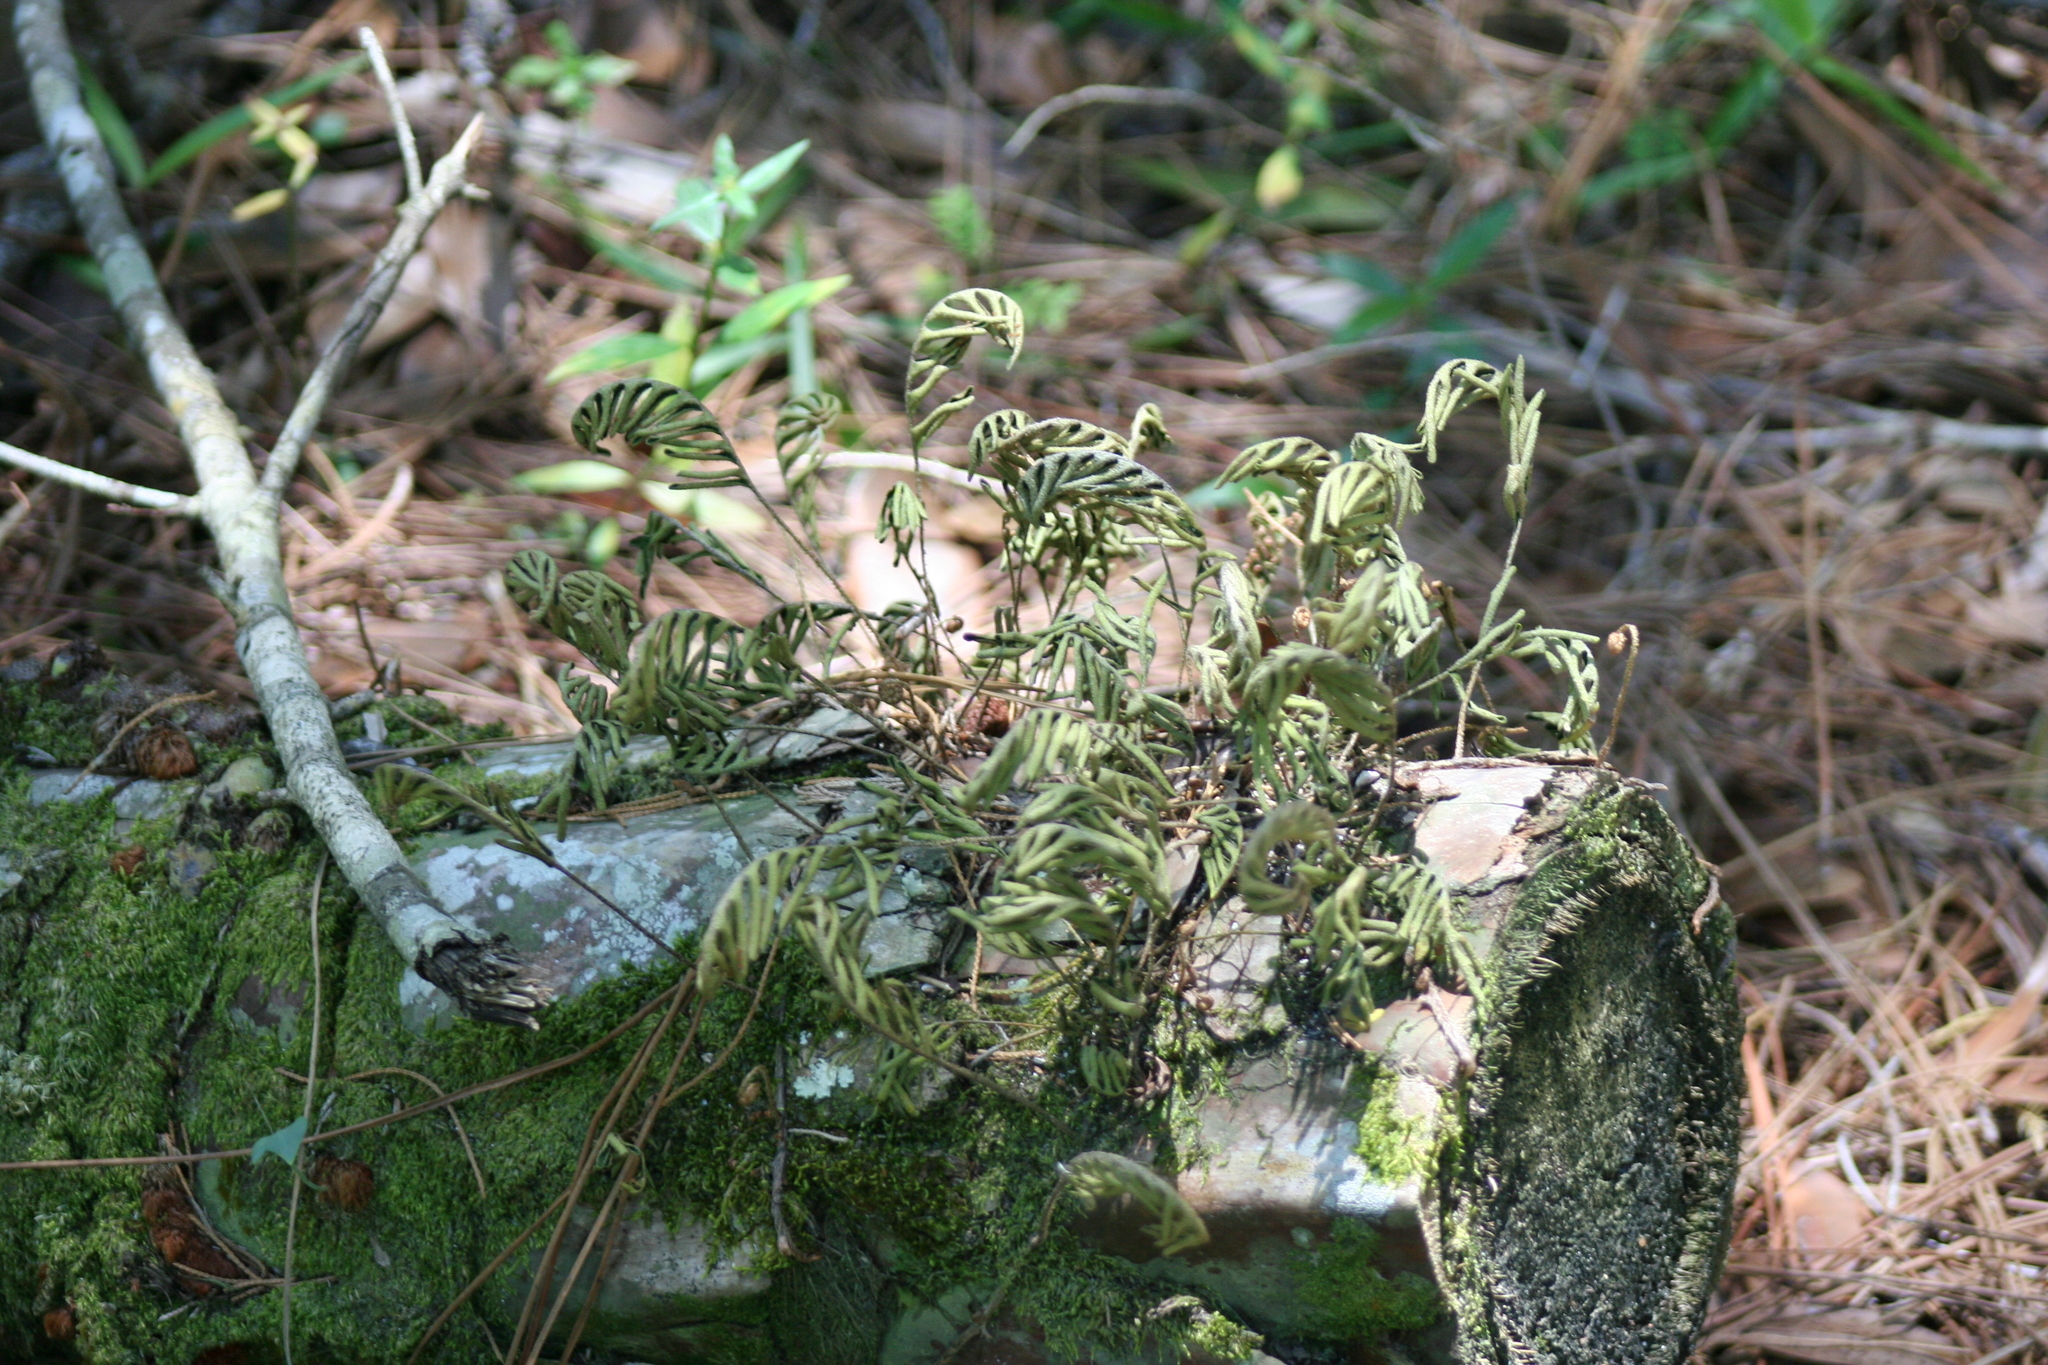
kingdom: Plantae
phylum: Tracheophyta
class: Polypodiopsida
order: Polypodiales
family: Polypodiaceae
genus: Pleopeltis
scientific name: Pleopeltis michauxiana
